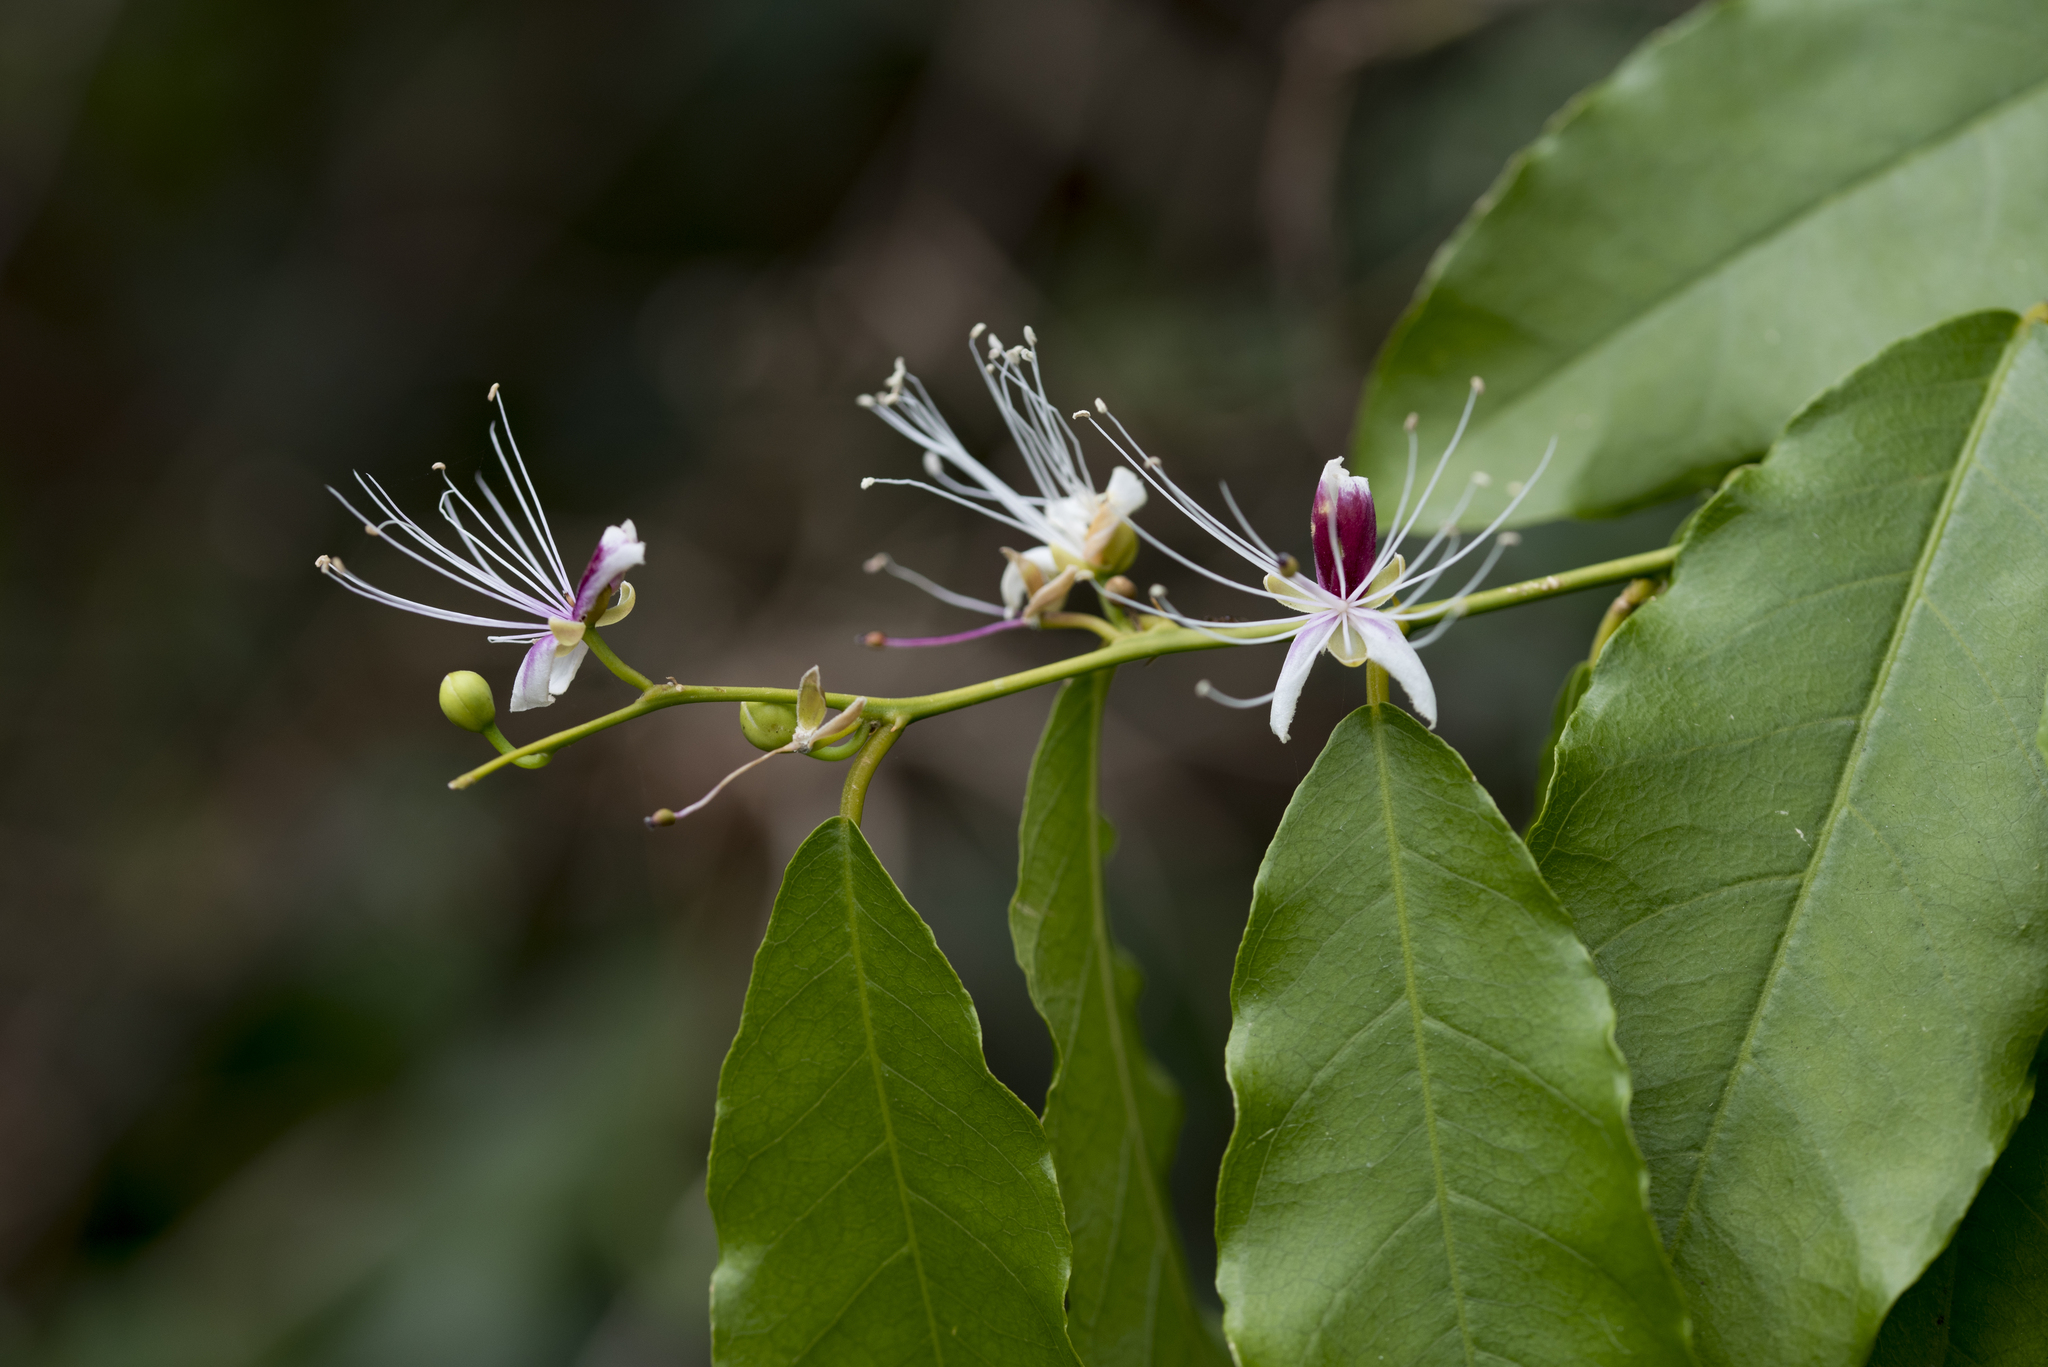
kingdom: Plantae
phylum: Tracheophyta
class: Magnoliopsida
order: Brassicales
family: Capparaceae
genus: Capparis
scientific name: Capparis henryi
